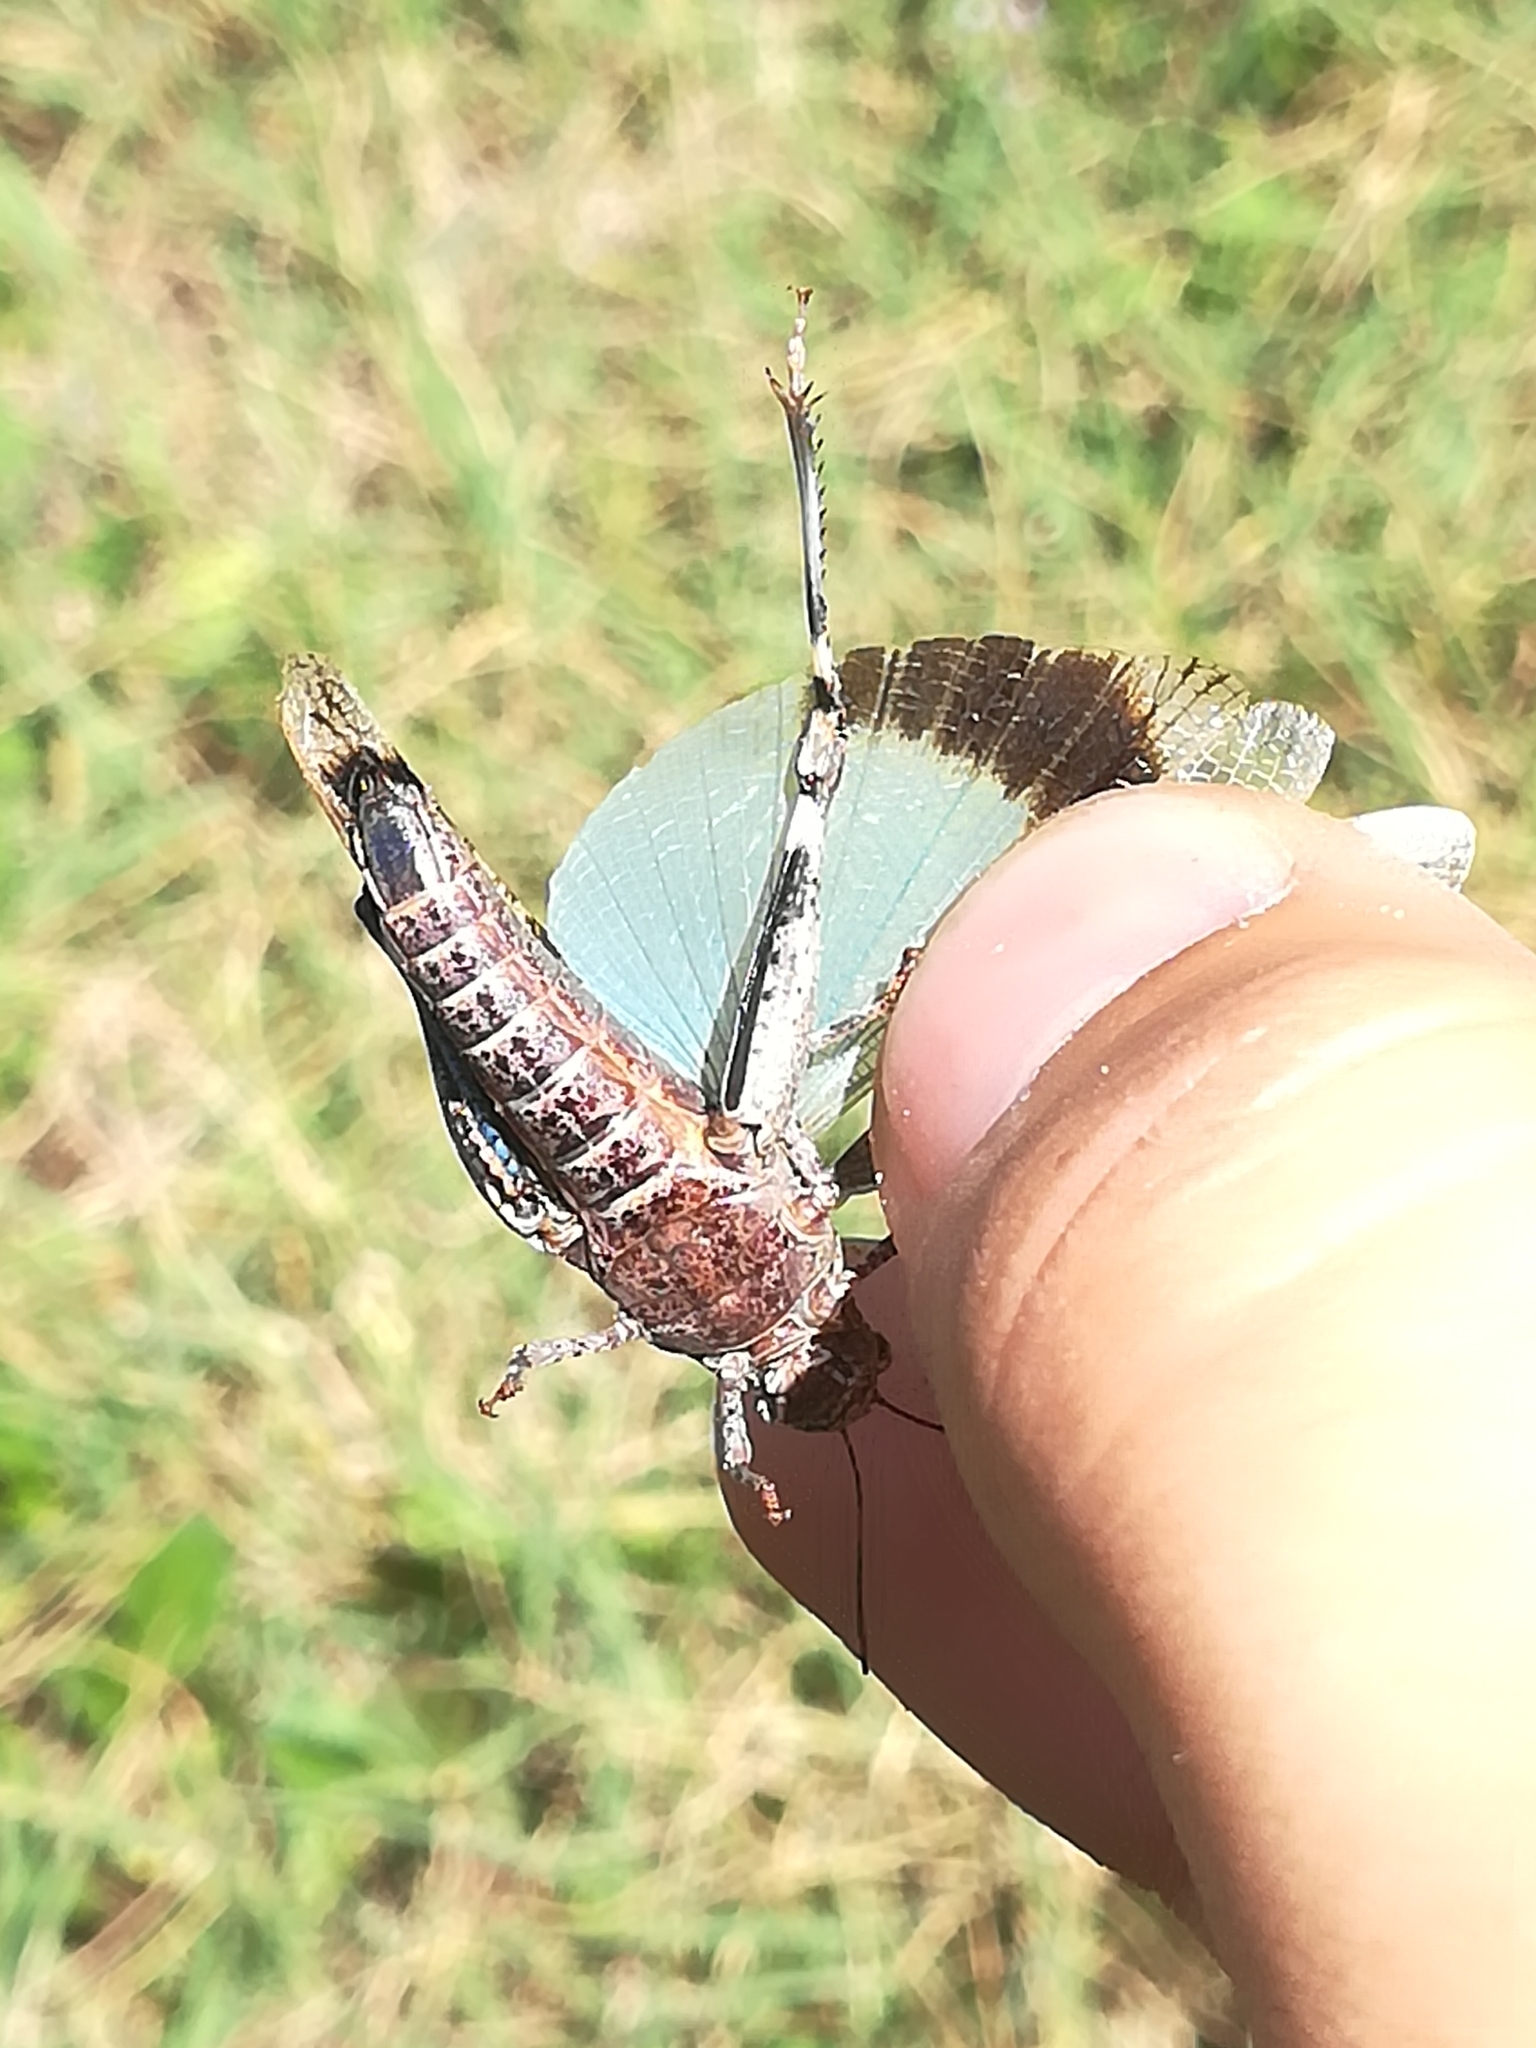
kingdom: Animalia
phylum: Arthropoda
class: Insecta
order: Orthoptera
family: Acrididae
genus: Oedipoda
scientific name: Oedipoda caerulescens
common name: Blue-winged grasshopper
